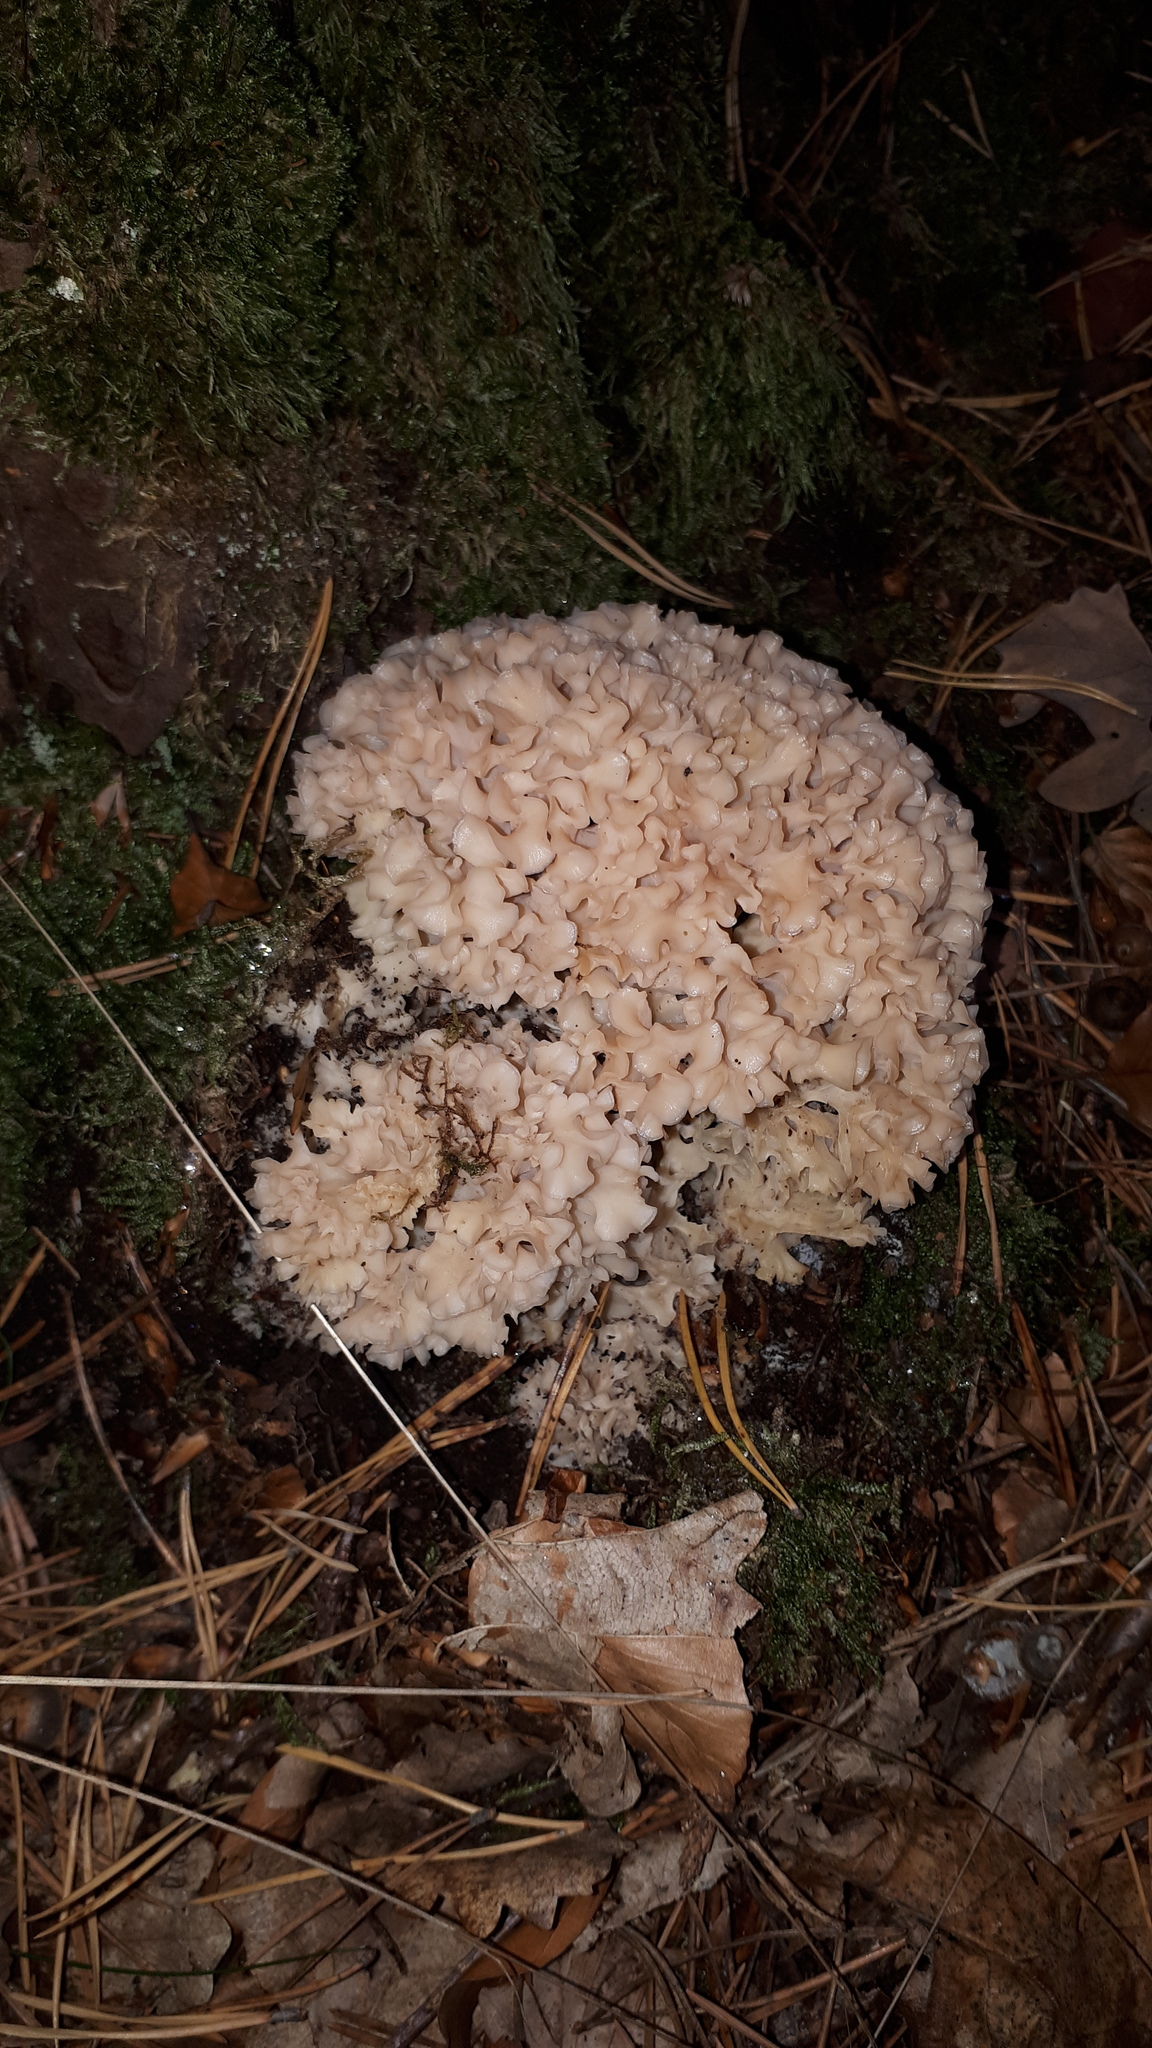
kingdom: Fungi
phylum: Basidiomycota
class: Agaricomycetes
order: Polyporales
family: Sparassidaceae
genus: Sparassis
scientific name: Sparassis crispa
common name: Brain fungus
